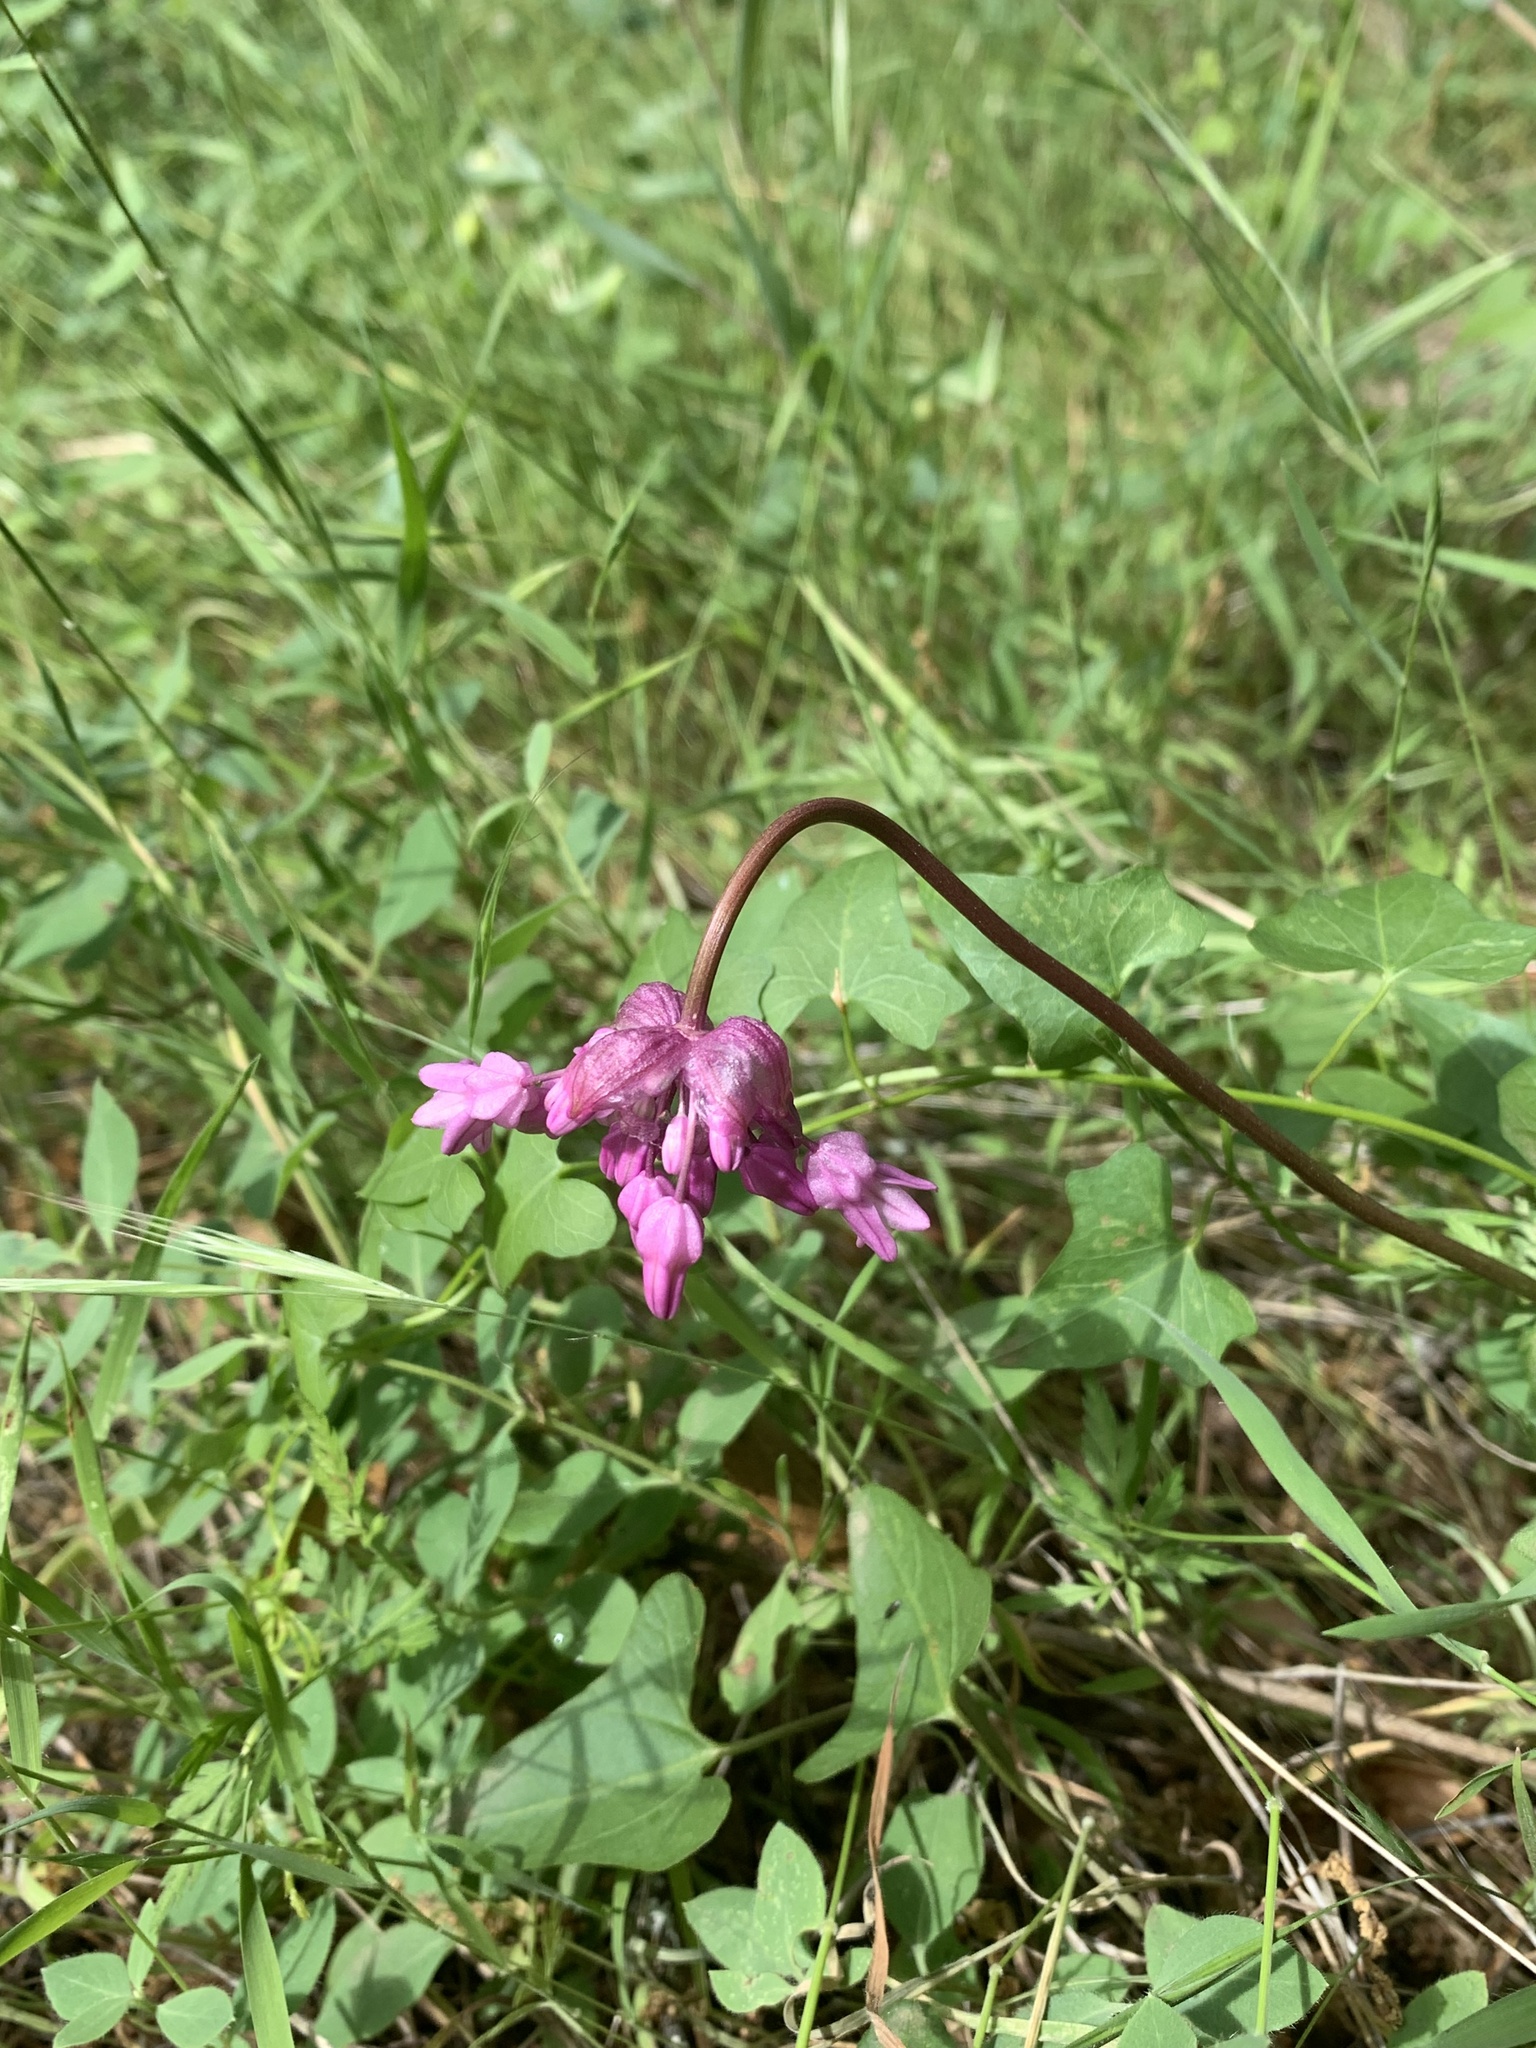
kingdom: Plantae
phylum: Tracheophyta
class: Liliopsida
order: Asparagales
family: Asparagaceae
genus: Dichelostemma
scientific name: Dichelostemma volubile
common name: Trining brodiaea
